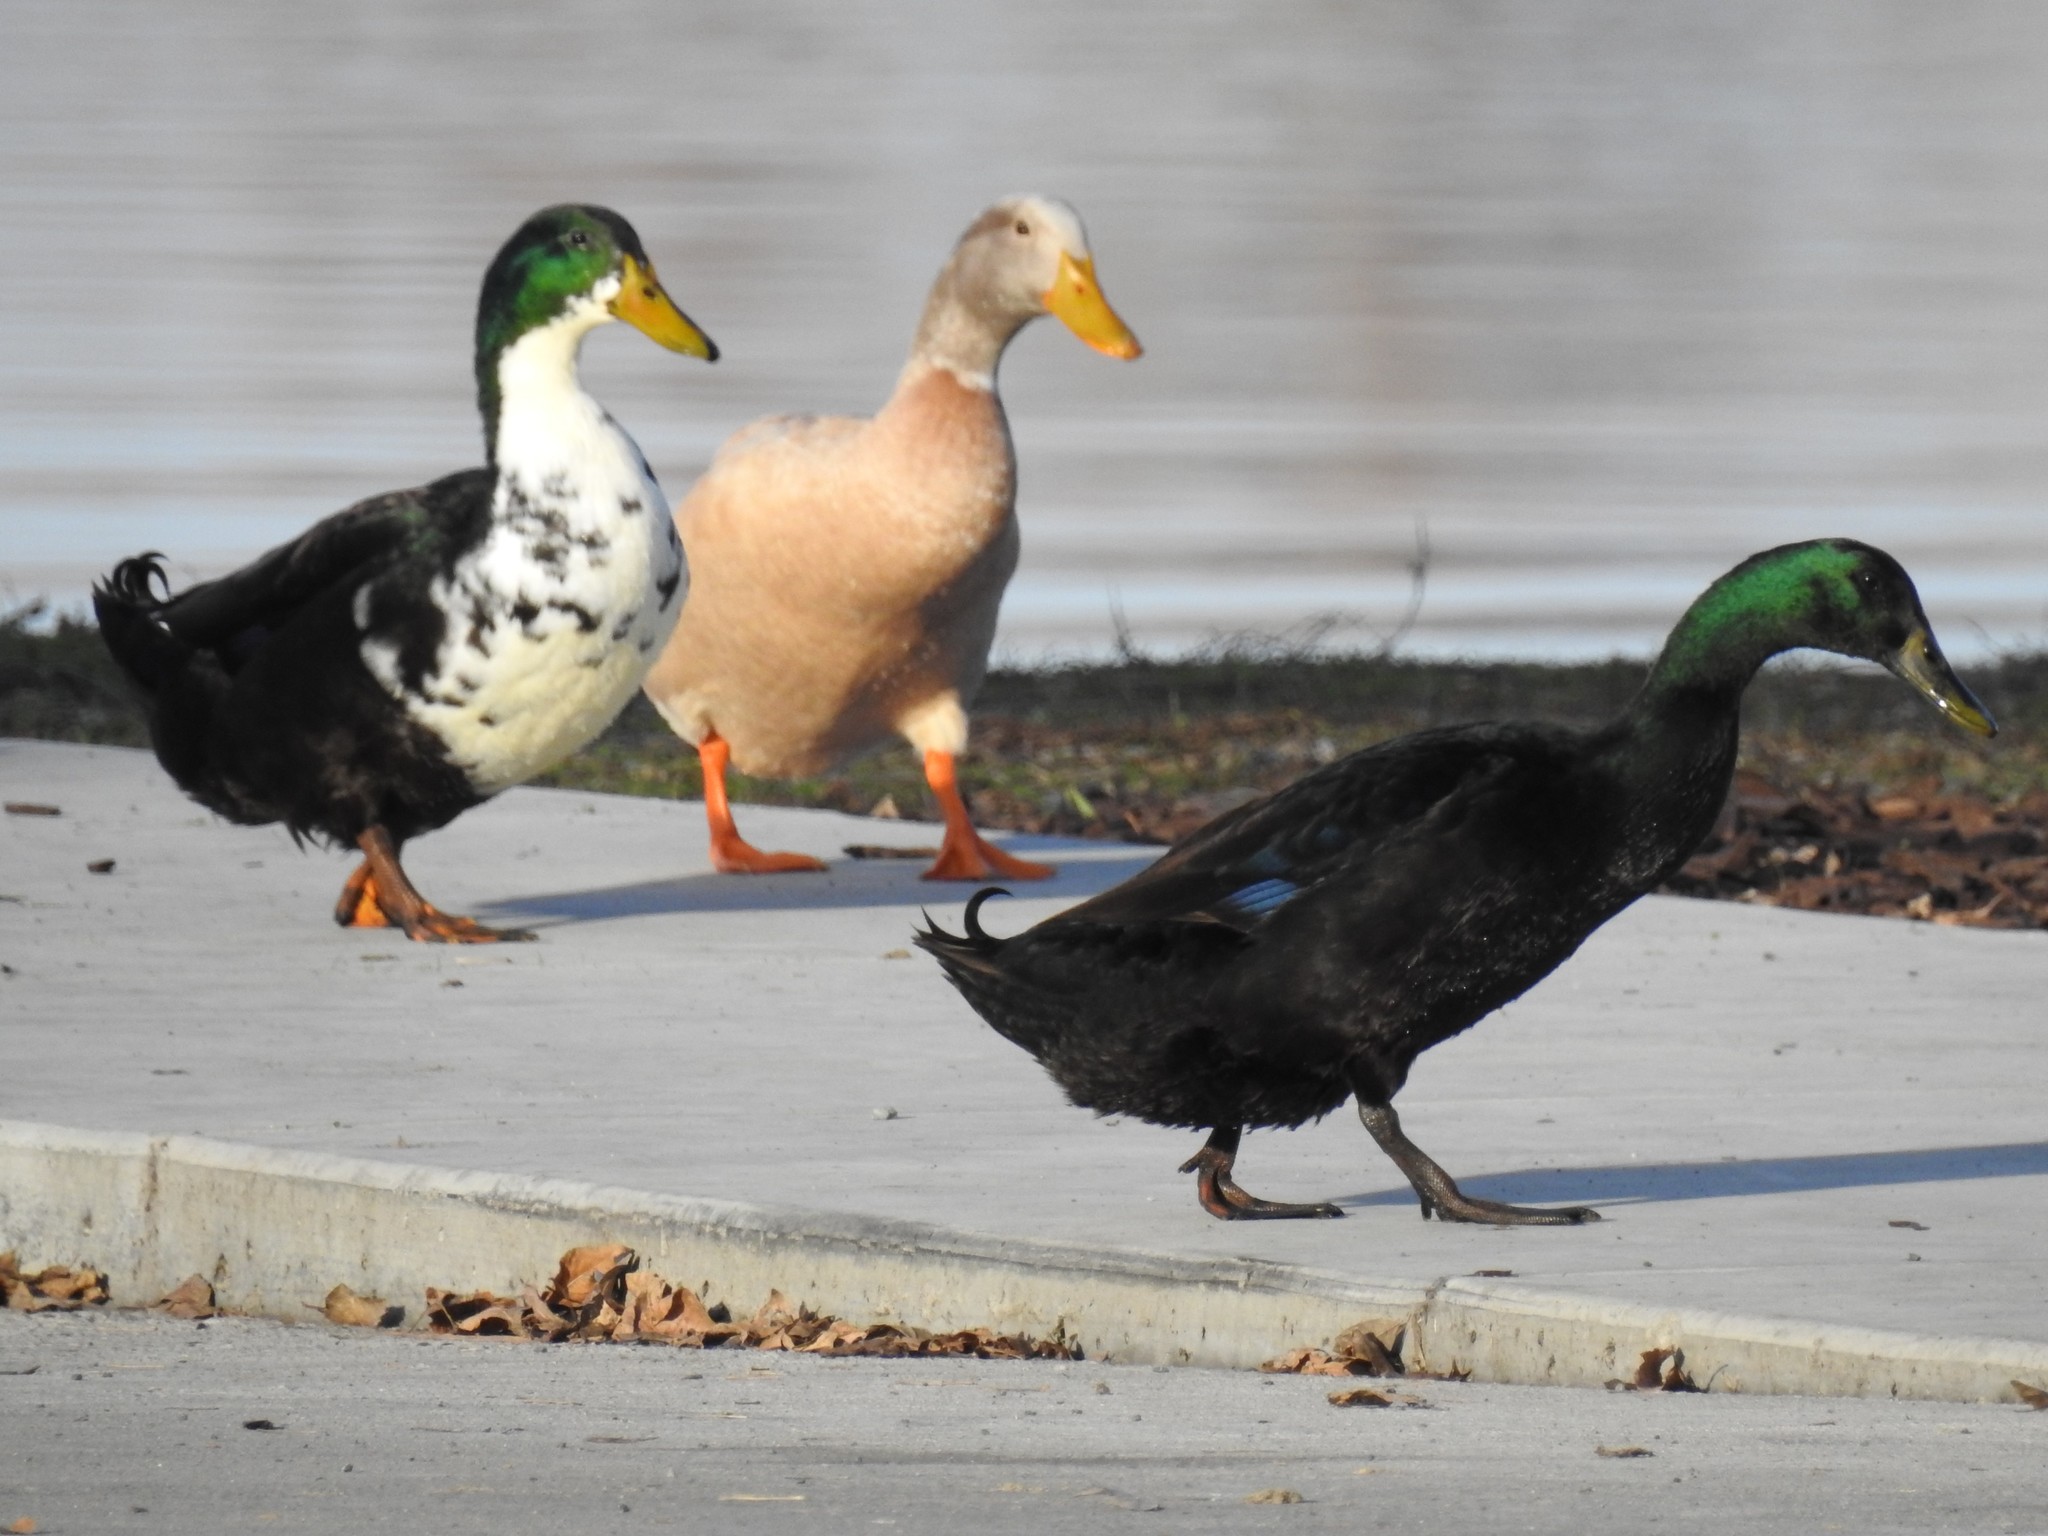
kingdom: Animalia
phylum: Chordata
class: Aves
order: Anseriformes
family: Anatidae
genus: Anas
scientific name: Anas platyrhynchos
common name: Mallard
